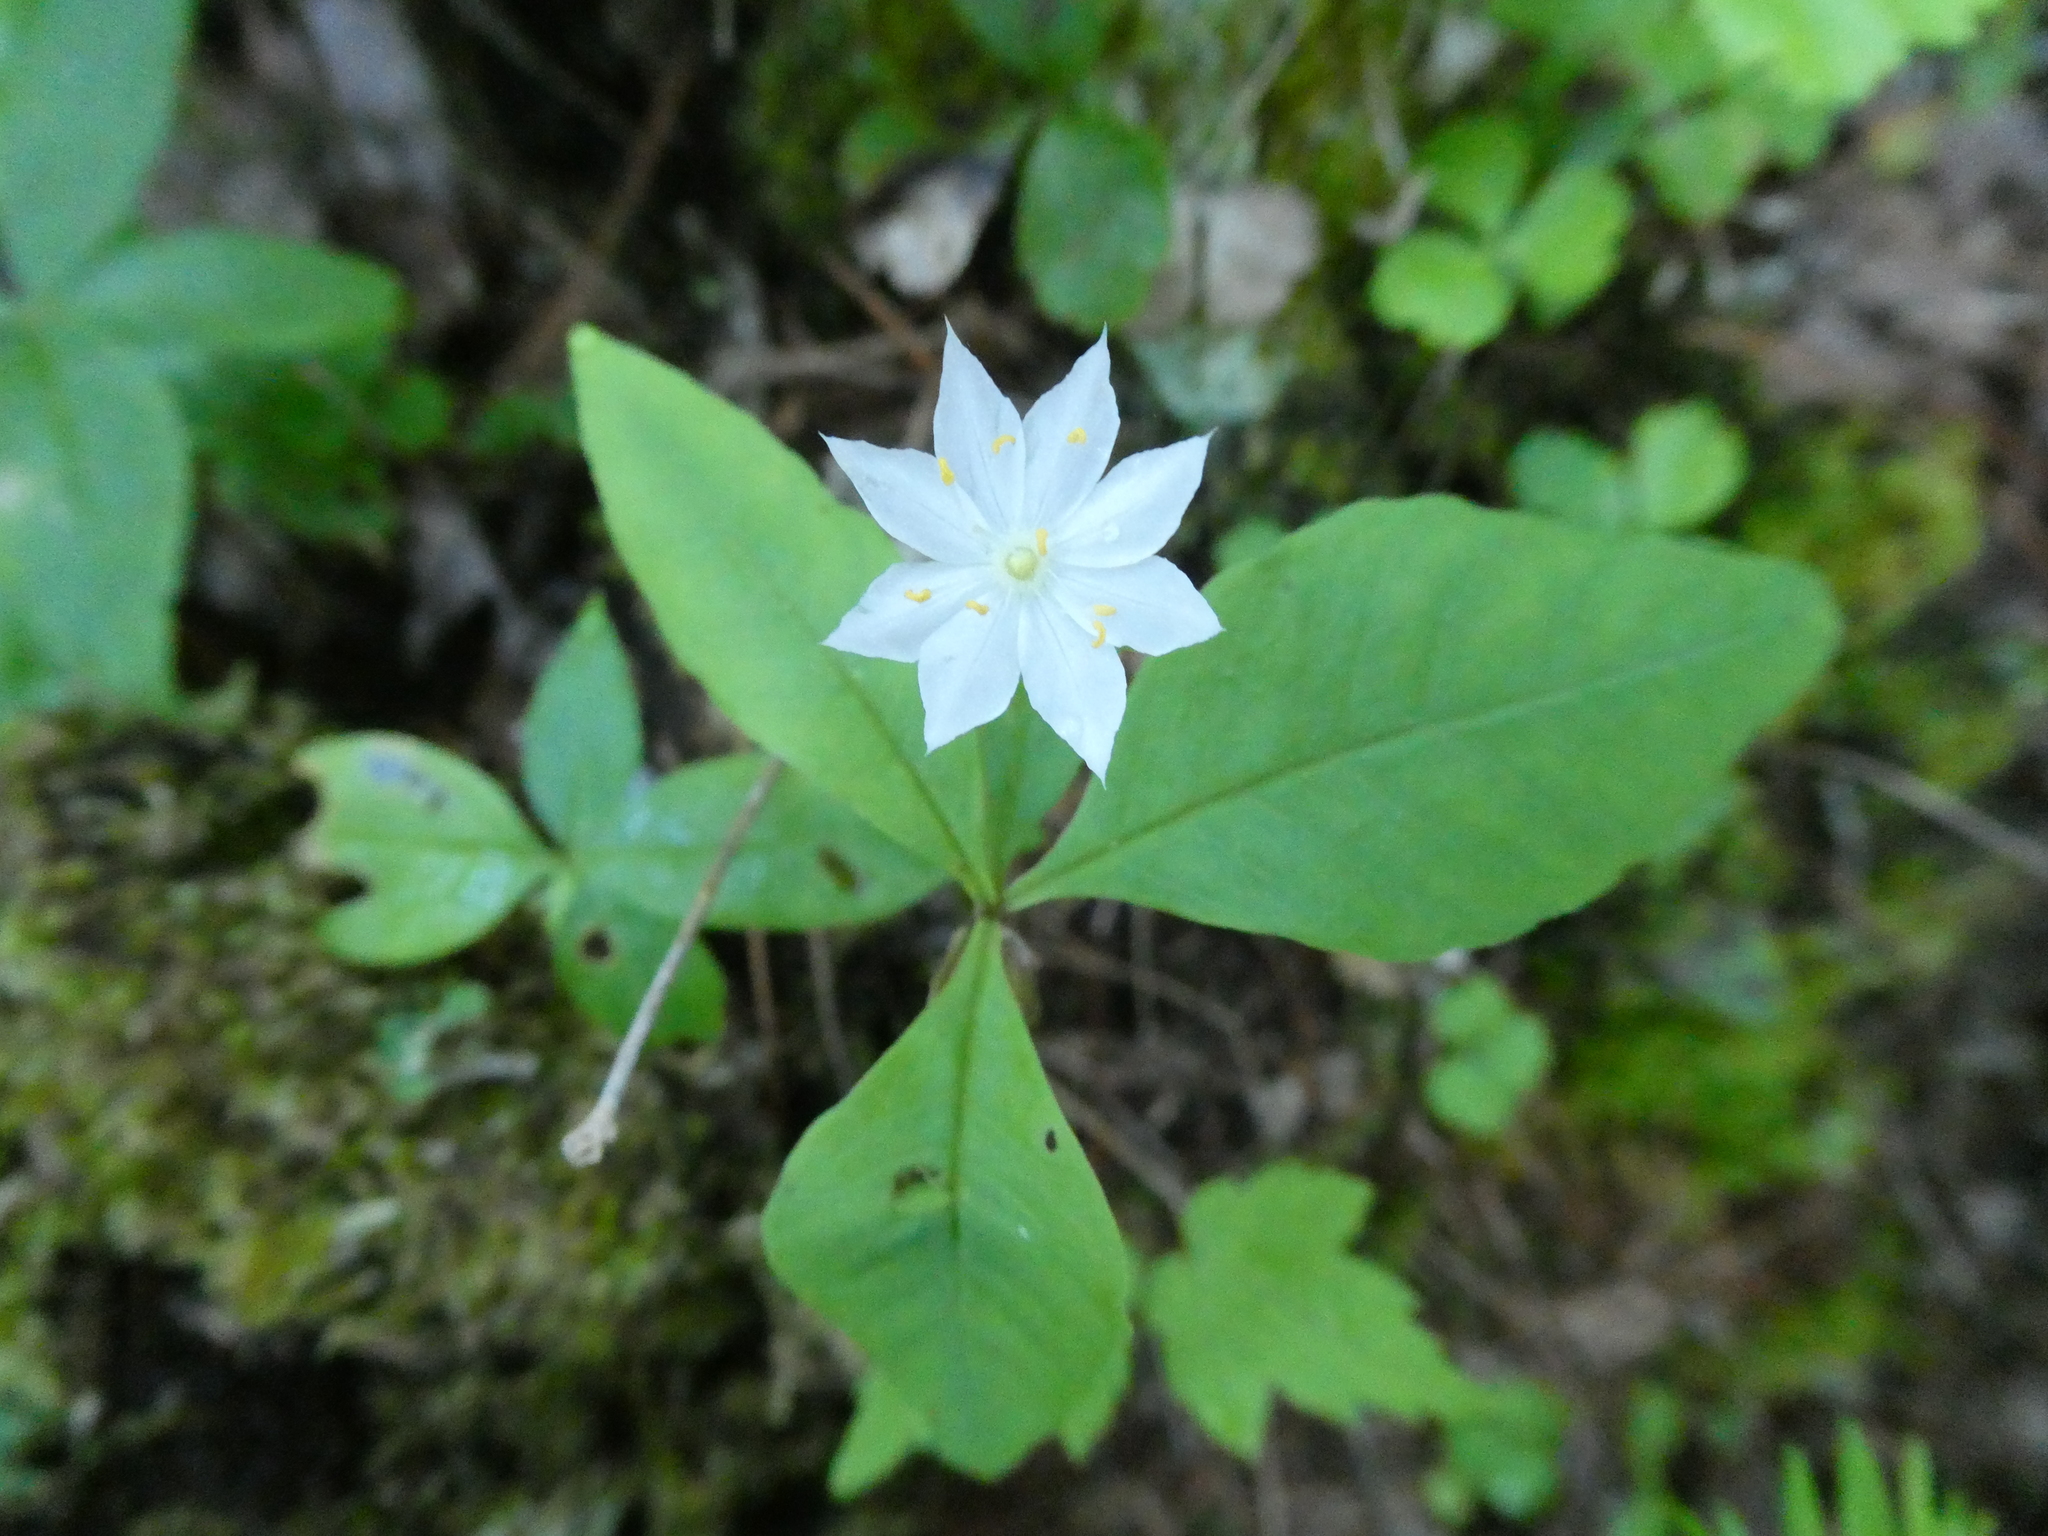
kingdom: Plantae
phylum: Tracheophyta
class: Magnoliopsida
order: Ericales
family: Primulaceae
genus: Lysimachia
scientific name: Lysimachia borealis
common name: American starflower
